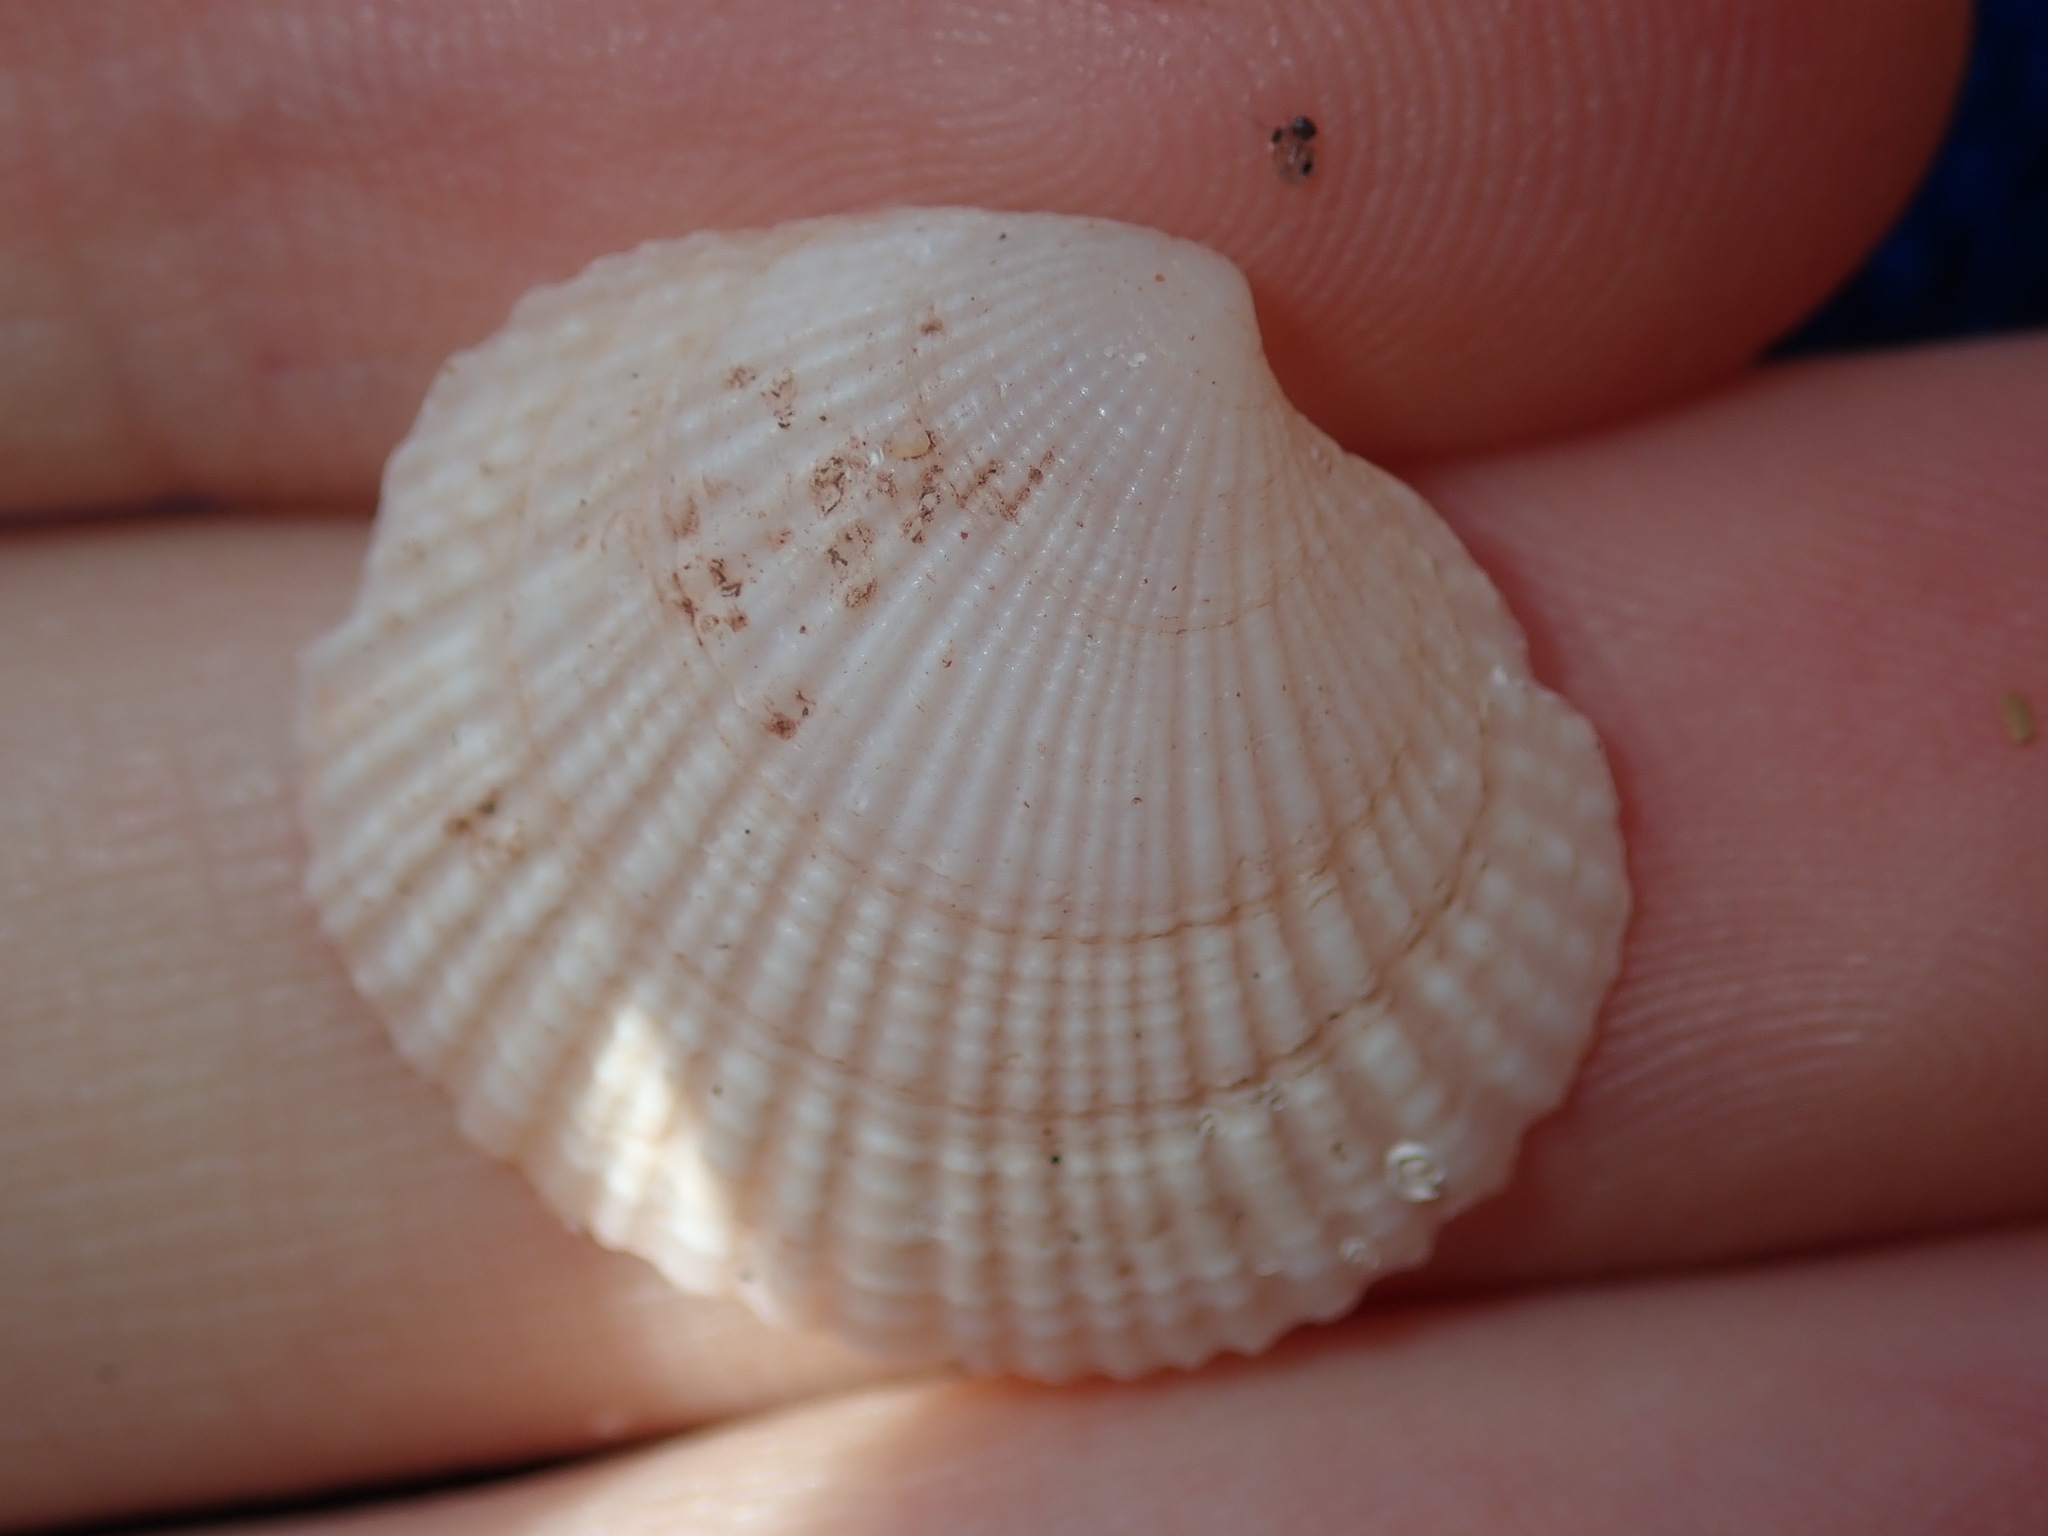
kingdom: Animalia
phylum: Mollusca
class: Bivalvia
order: Lucinida
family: Lucinidae
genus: Codakia
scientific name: Codakia rugifera
